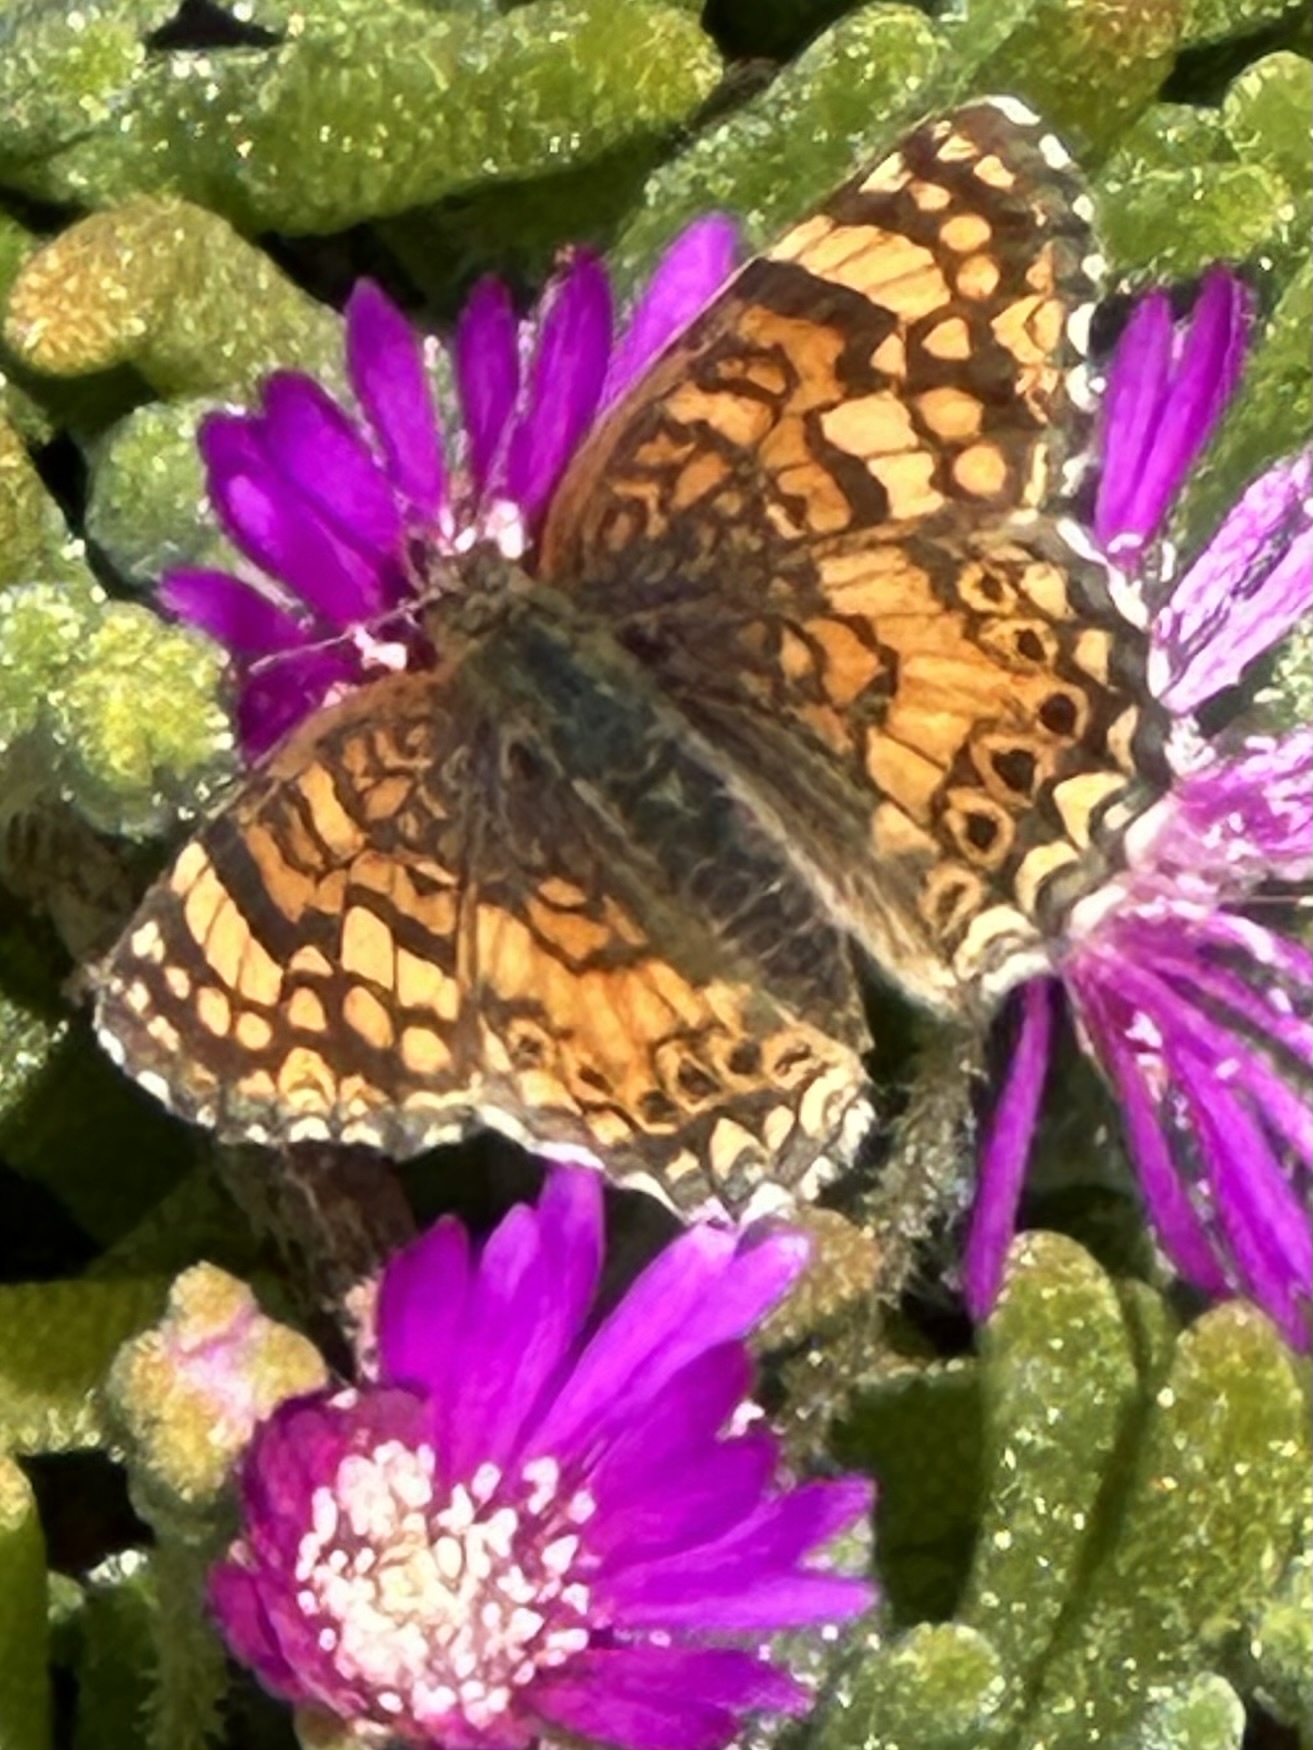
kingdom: Animalia
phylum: Arthropoda
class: Insecta
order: Lepidoptera
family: Nymphalidae
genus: Eresia
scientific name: Eresia aveyrona
